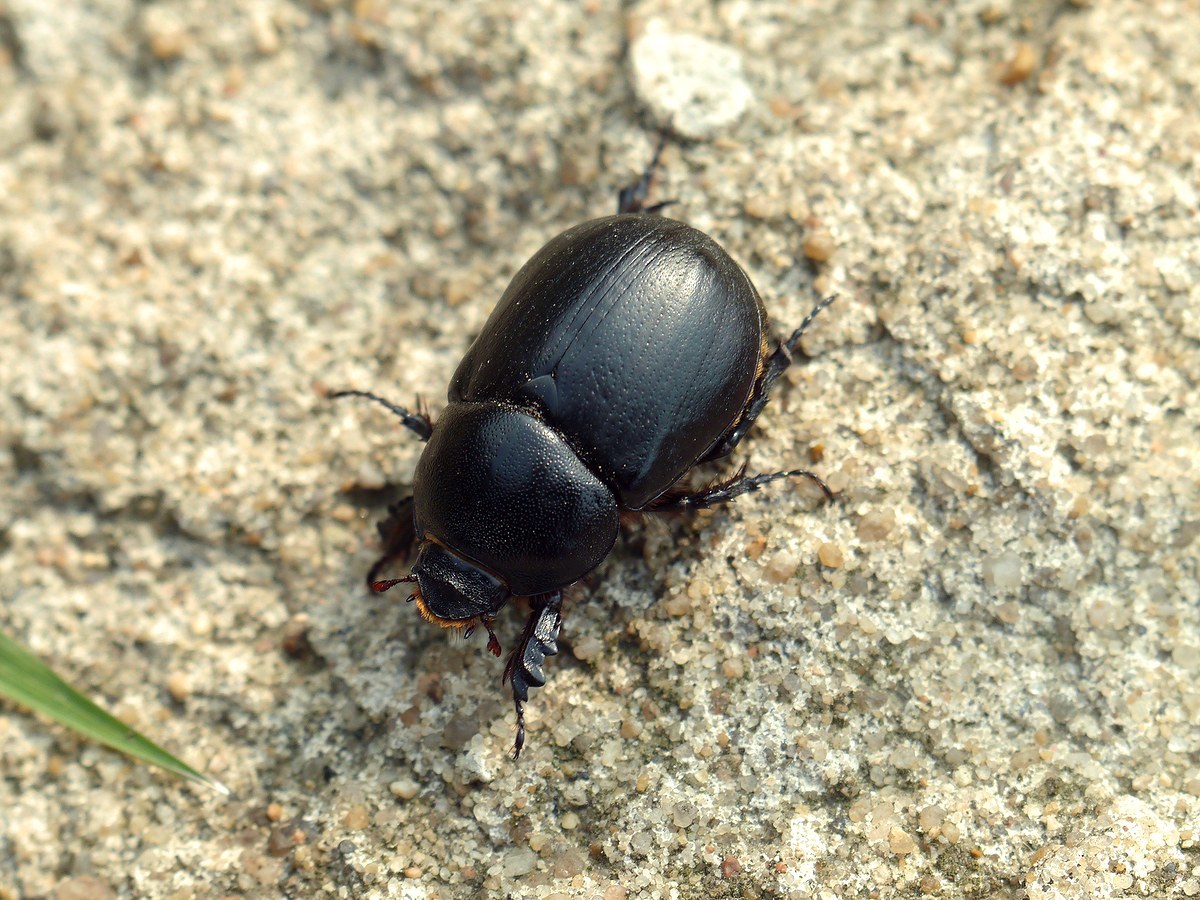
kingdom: Animalia
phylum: Arthropoda
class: Insecta
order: Coleoptera
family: Scarabaeidae
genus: Pentodon
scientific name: Pentodon
